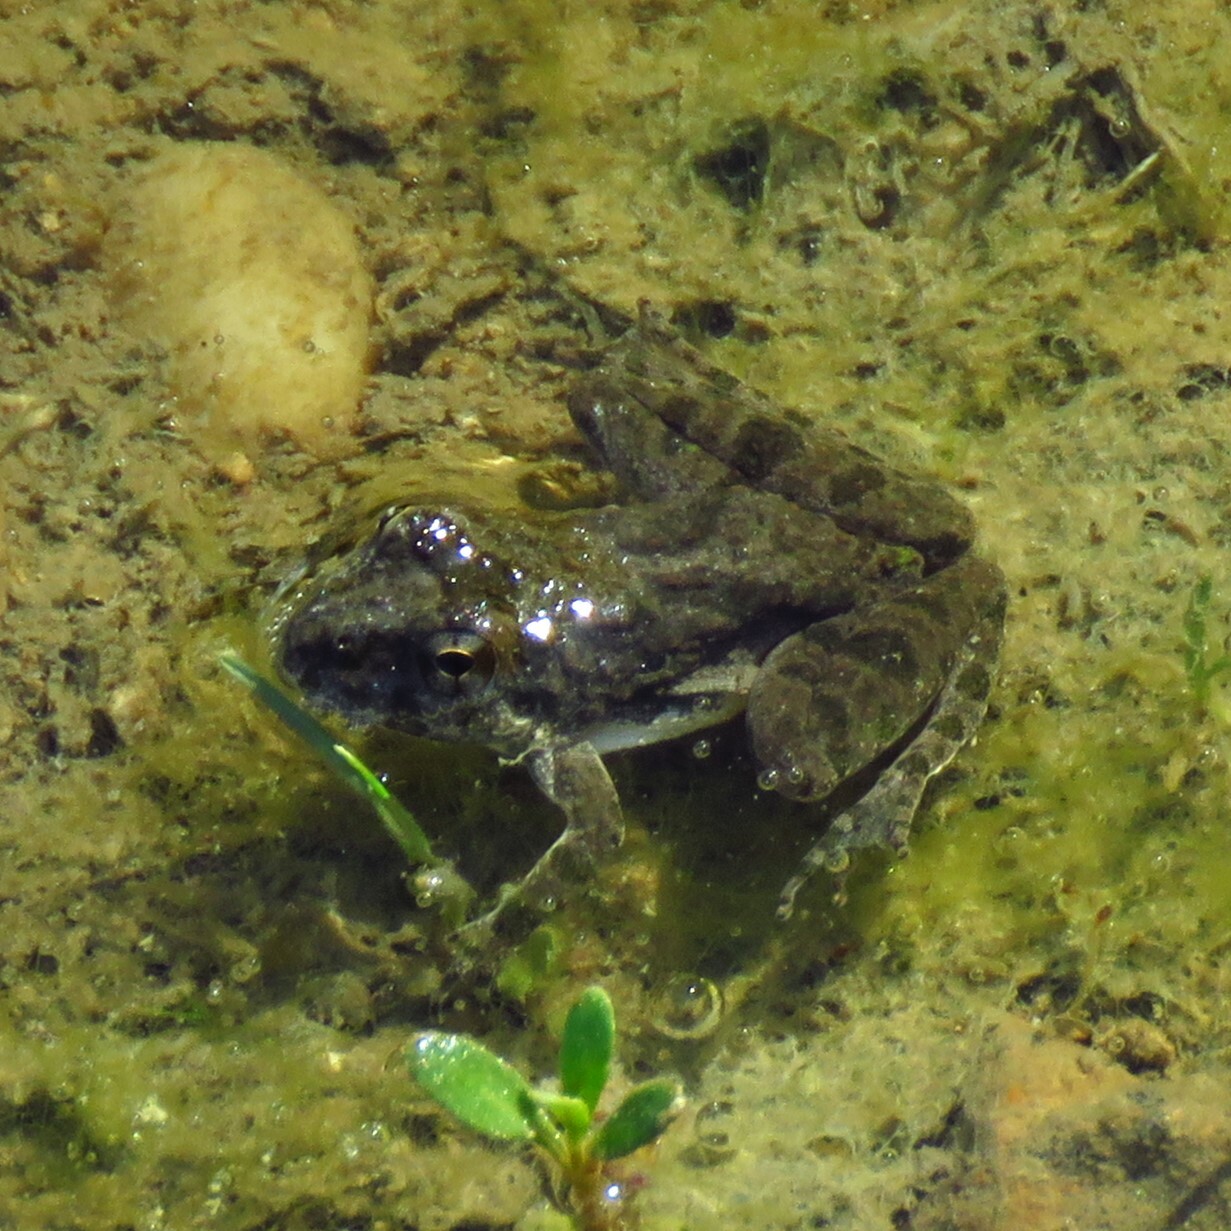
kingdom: Animalia
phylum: Chordata
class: Amphibia
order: Anura
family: Hylidae
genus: Acris
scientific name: Acris blanchardi
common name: Blanchard's cricket frog
